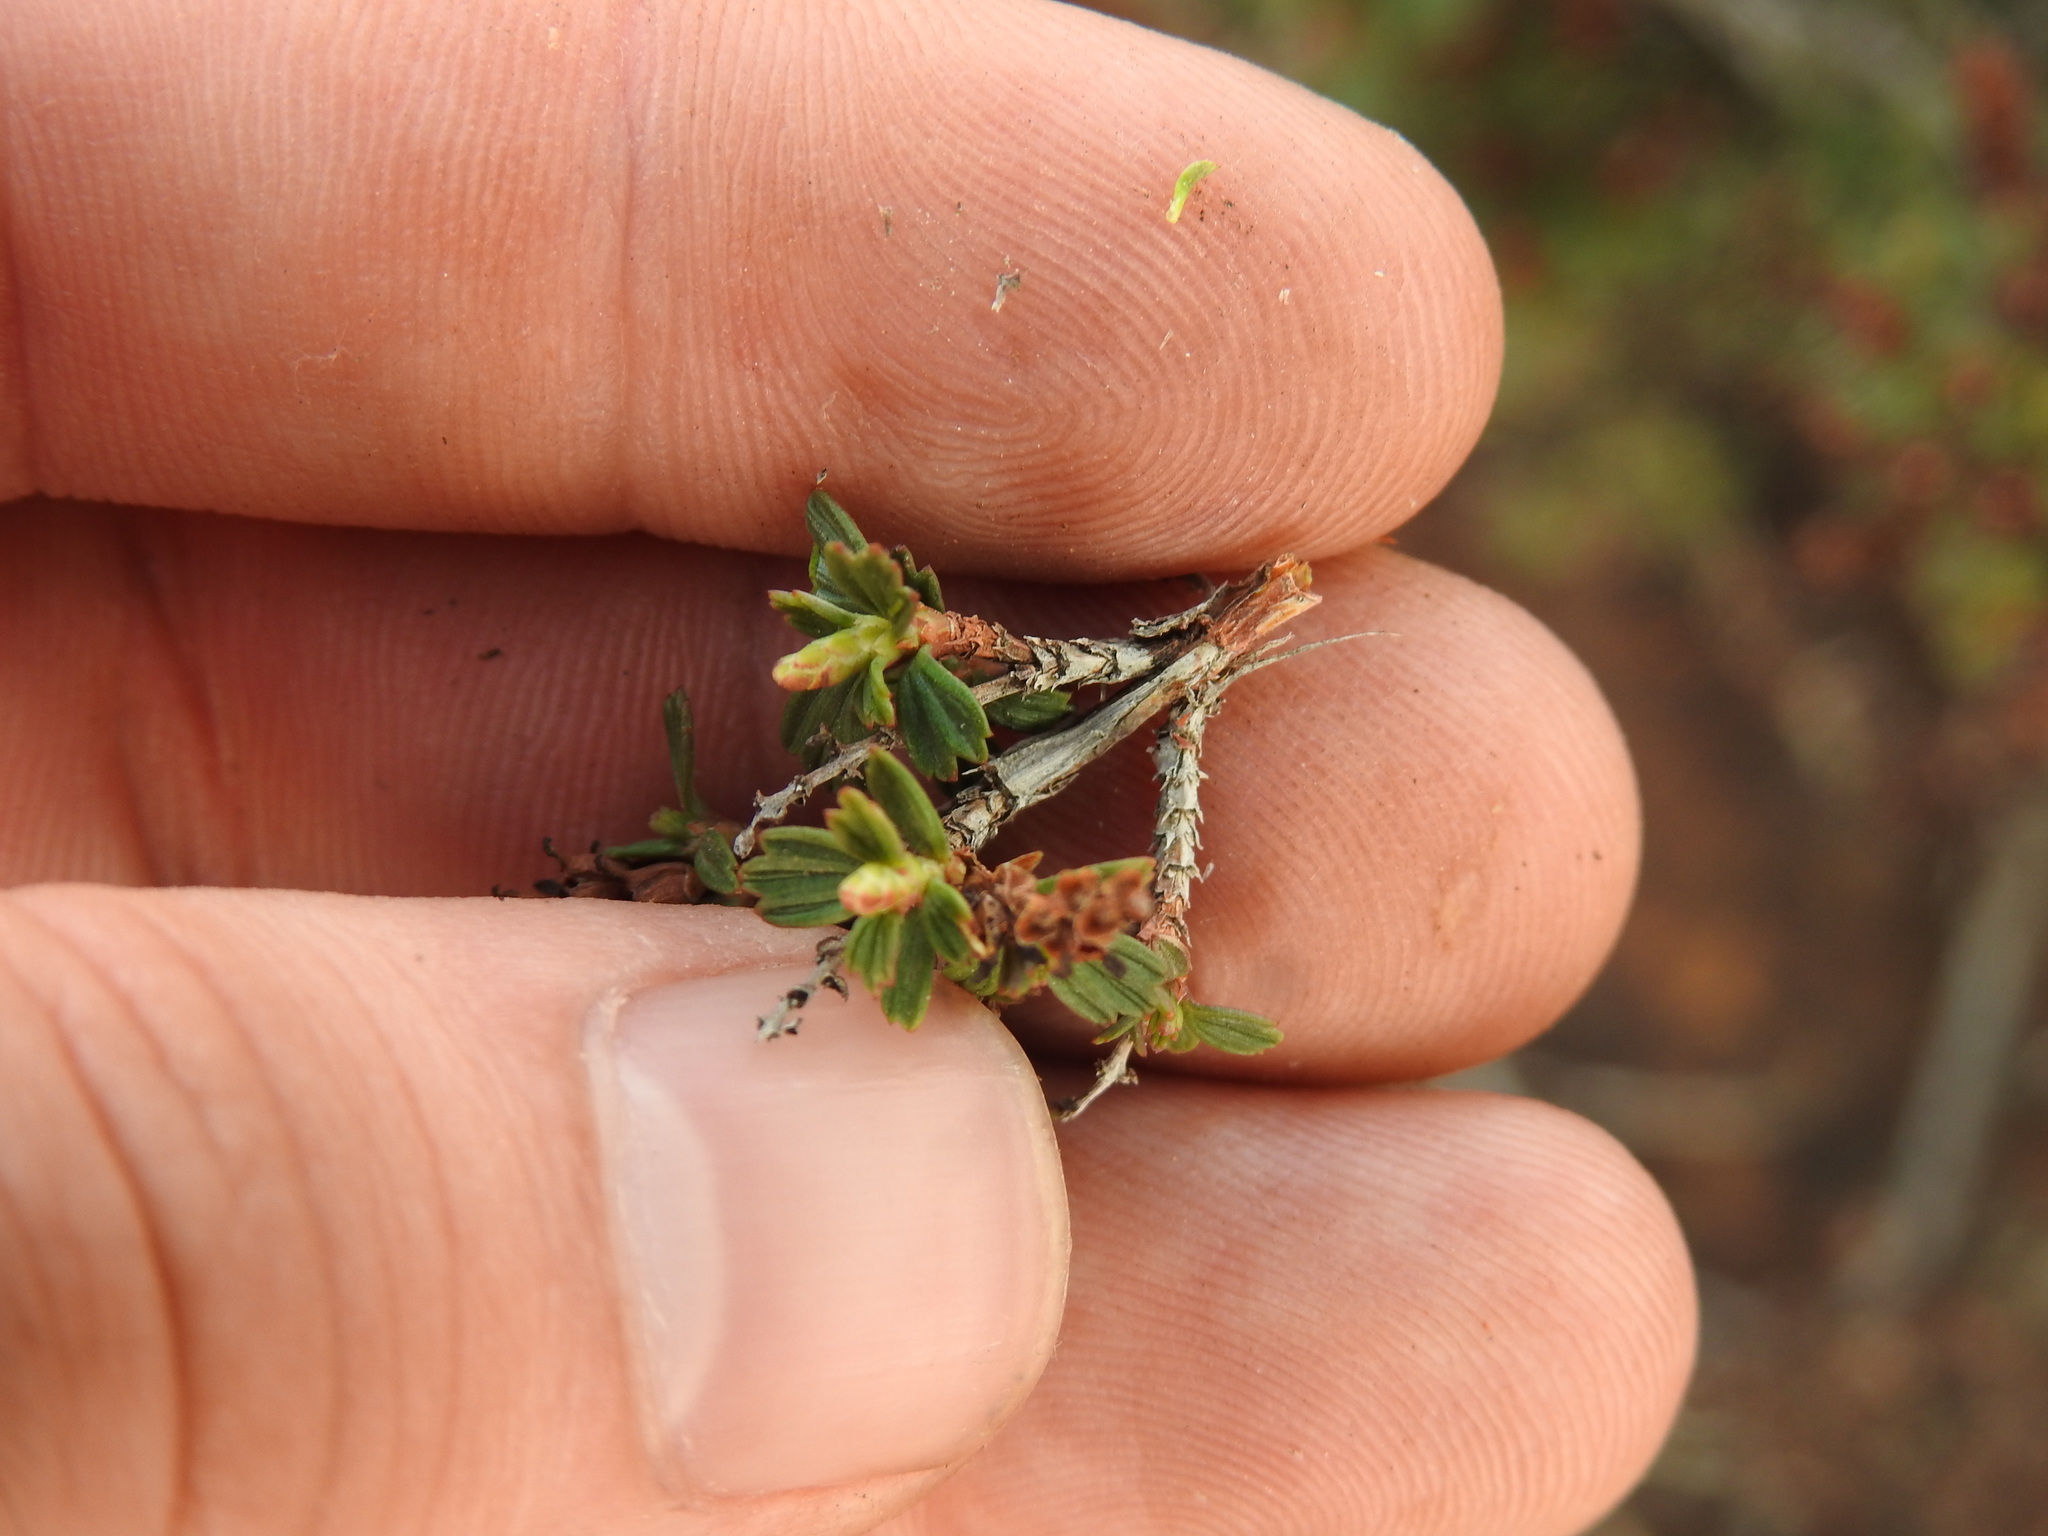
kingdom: Plantae
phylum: Tracheophyta
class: Magnoliopsida
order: Gunnerales
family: Myrothamnaceae
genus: Myrothamnus
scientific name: Myrothamnus flabellifolius
